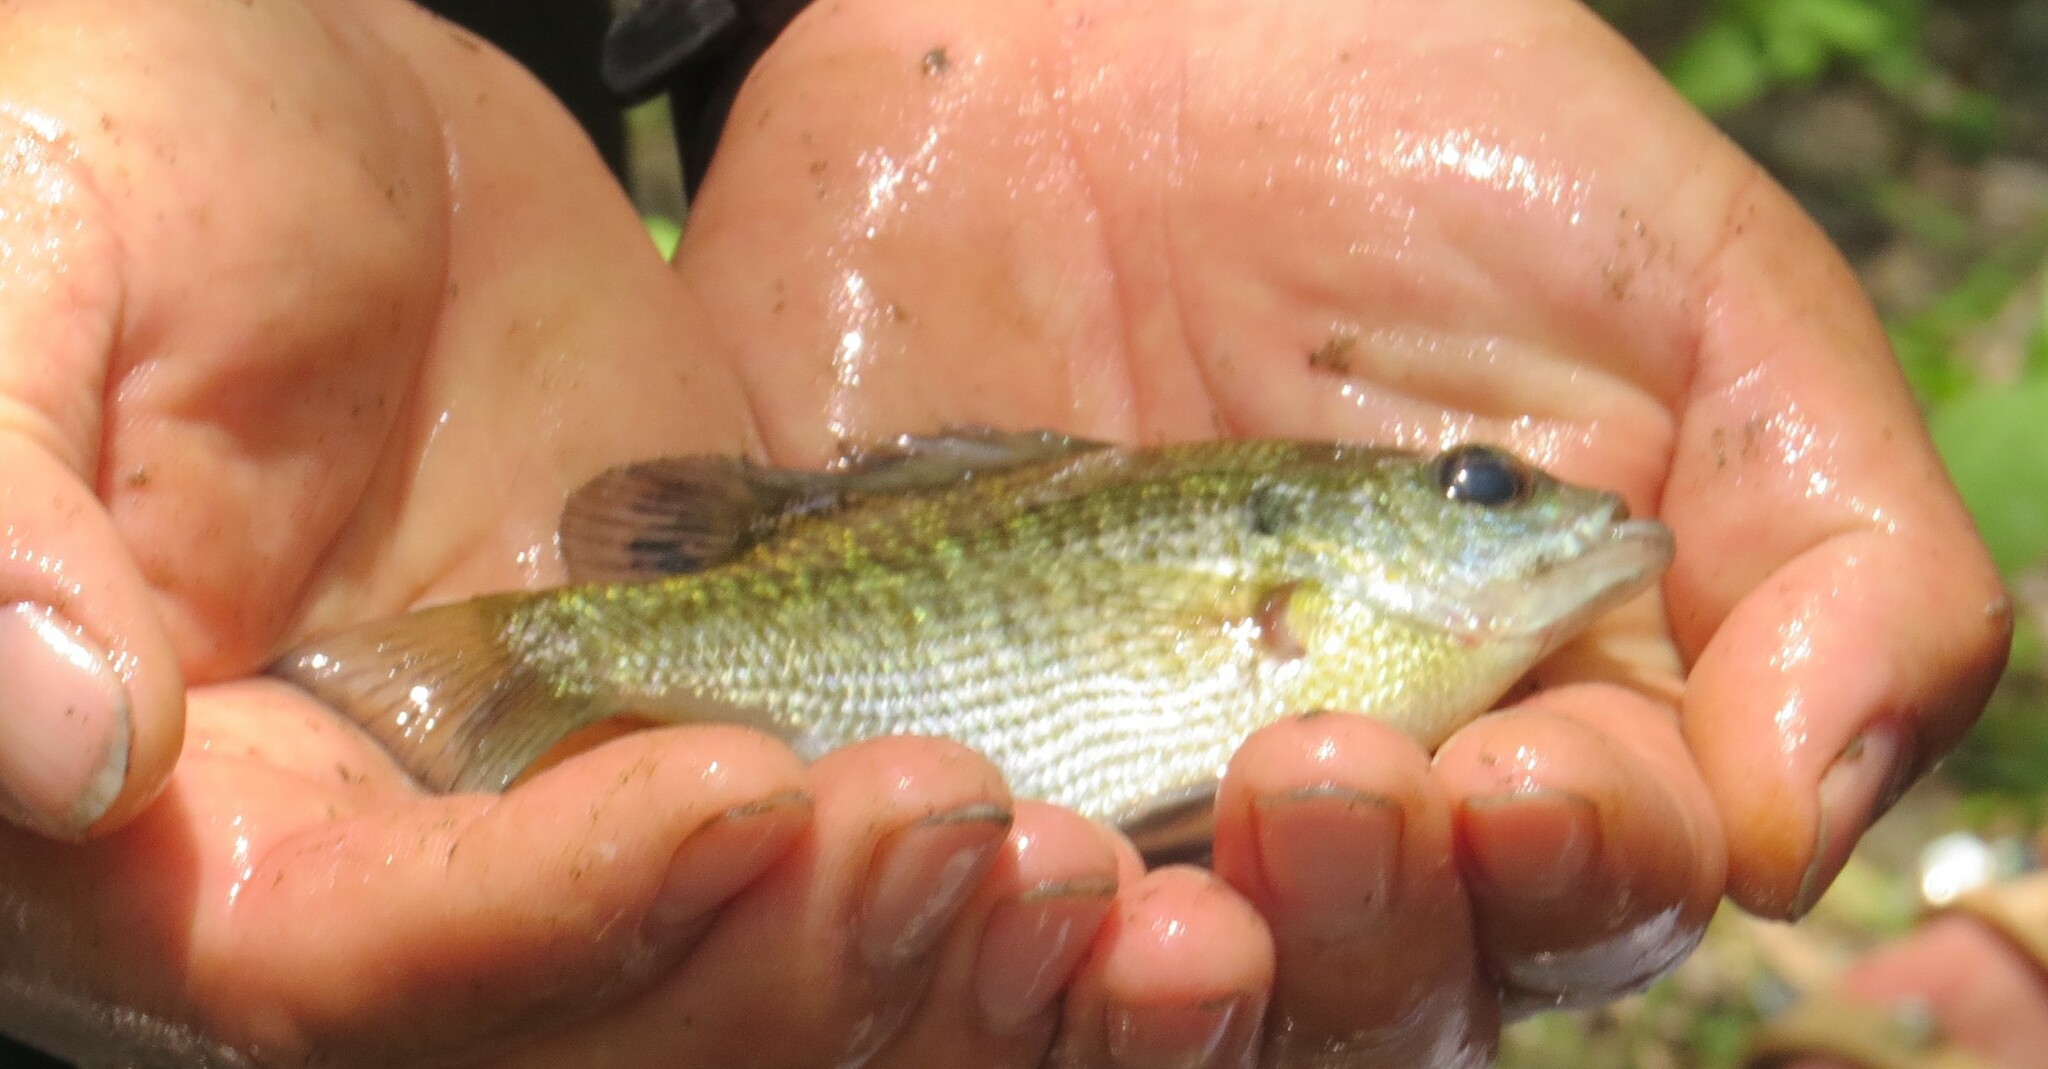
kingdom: Animalia
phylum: Chordata
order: Perciformes
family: Centrarchidae
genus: Lepomis
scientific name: Lepomis macrochirus
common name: Bluegill
